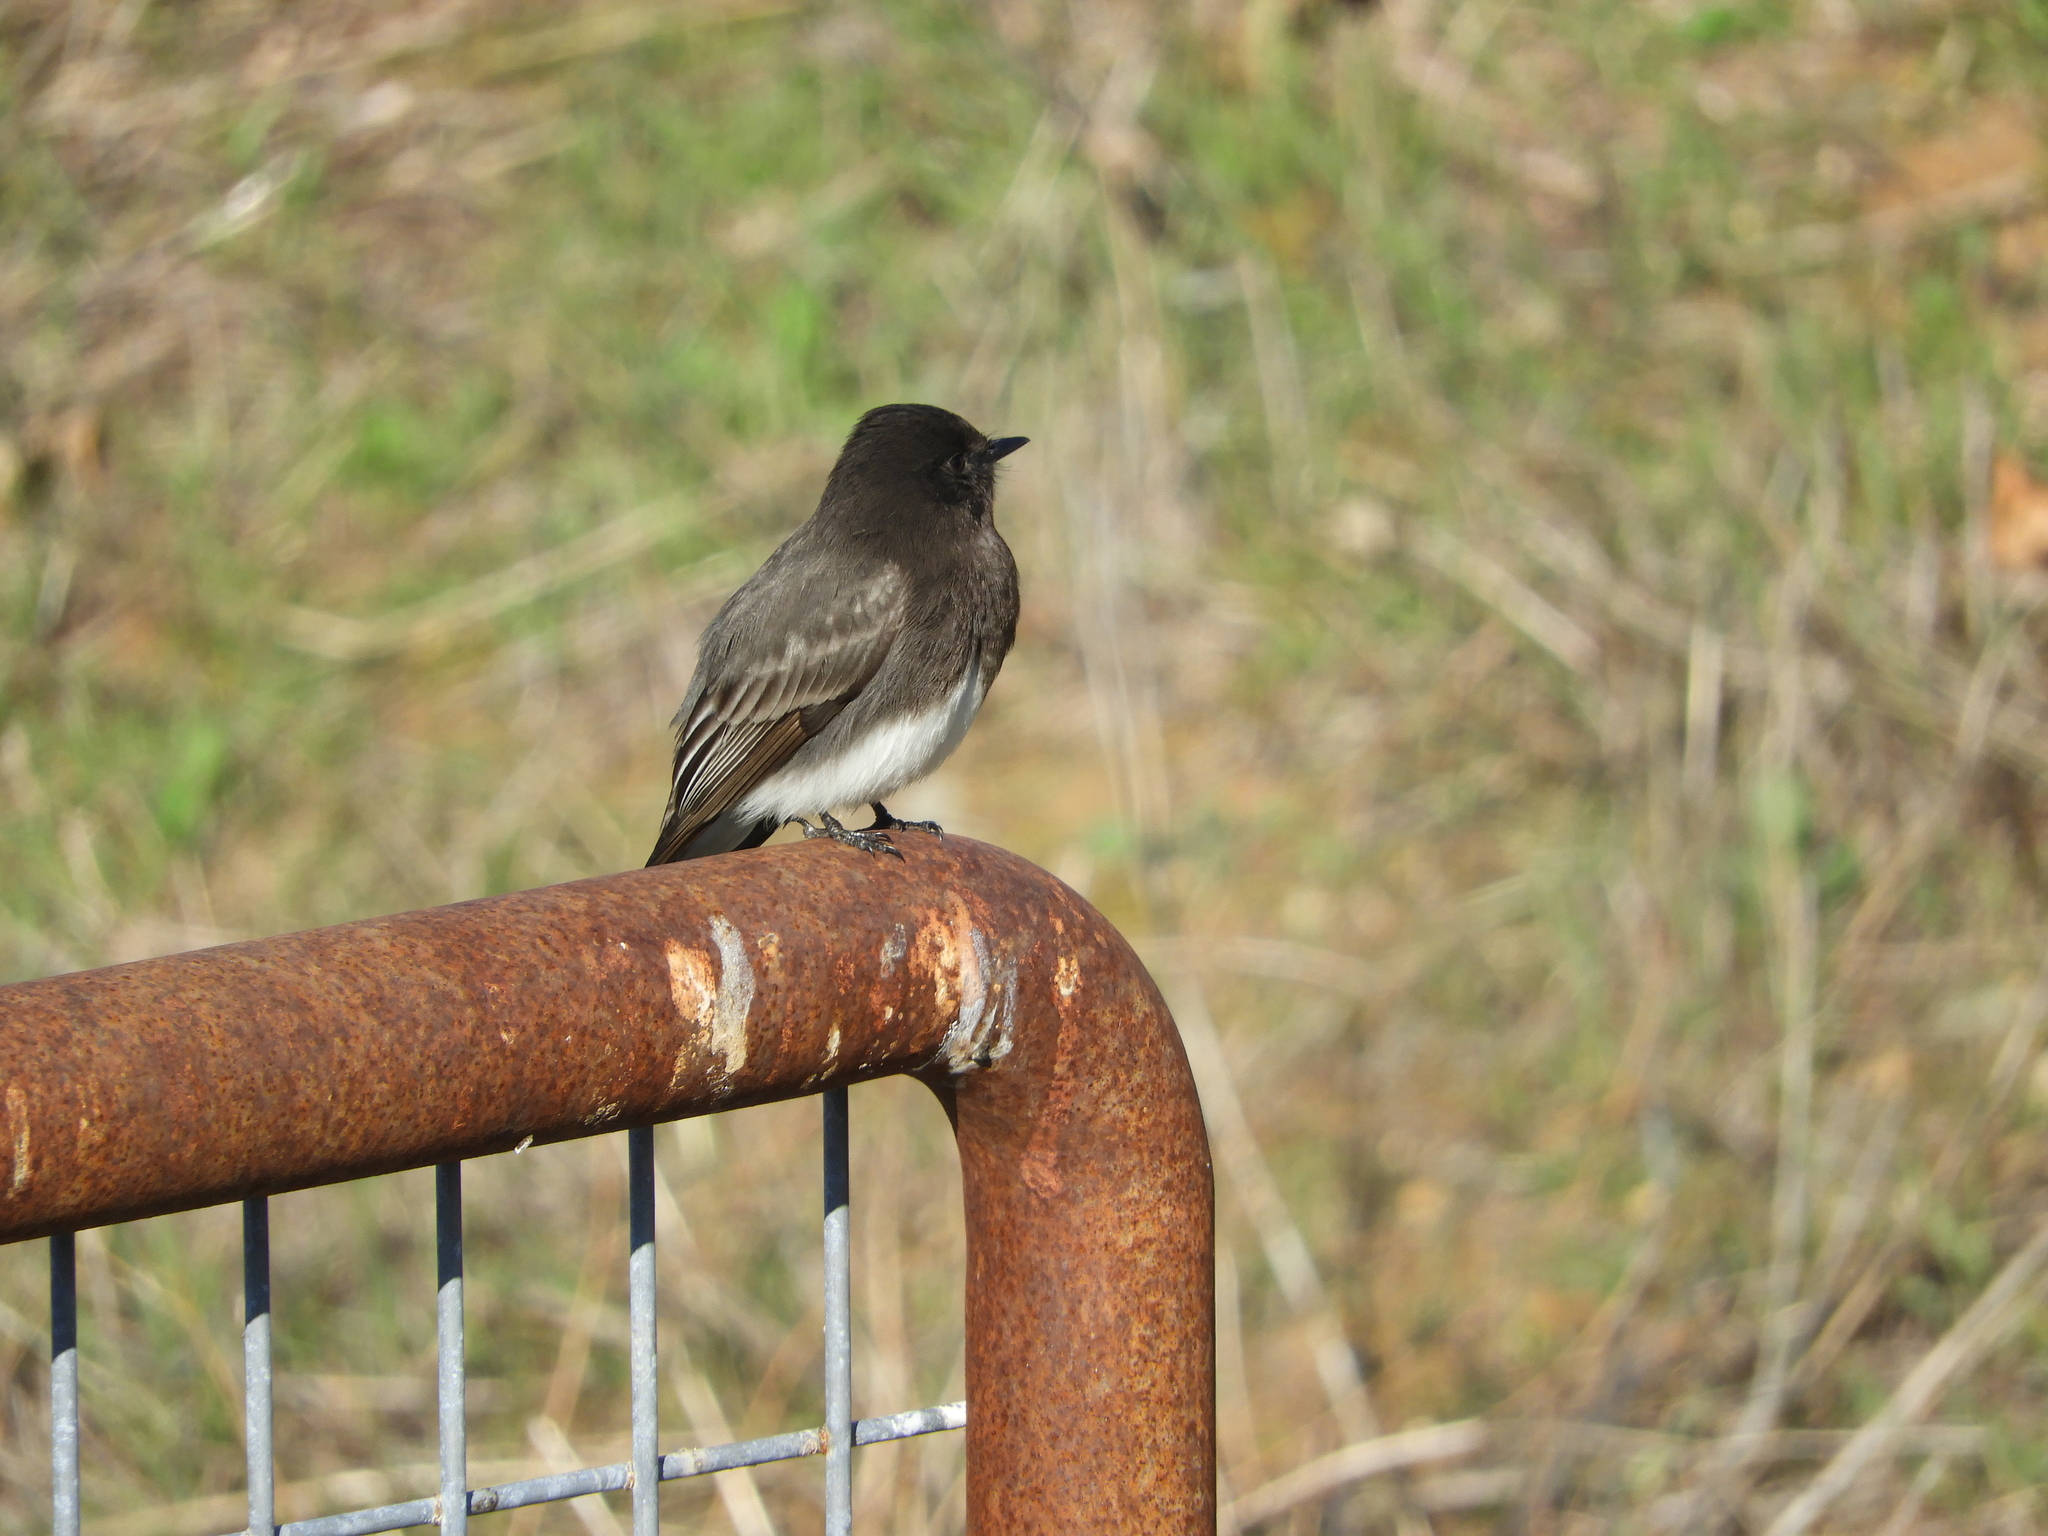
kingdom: Animalia
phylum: Chordata
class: Aves
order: Passeriformes
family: Tyrannidae
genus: Sayornis
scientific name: Sayornis nigricans
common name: Black phoebe
